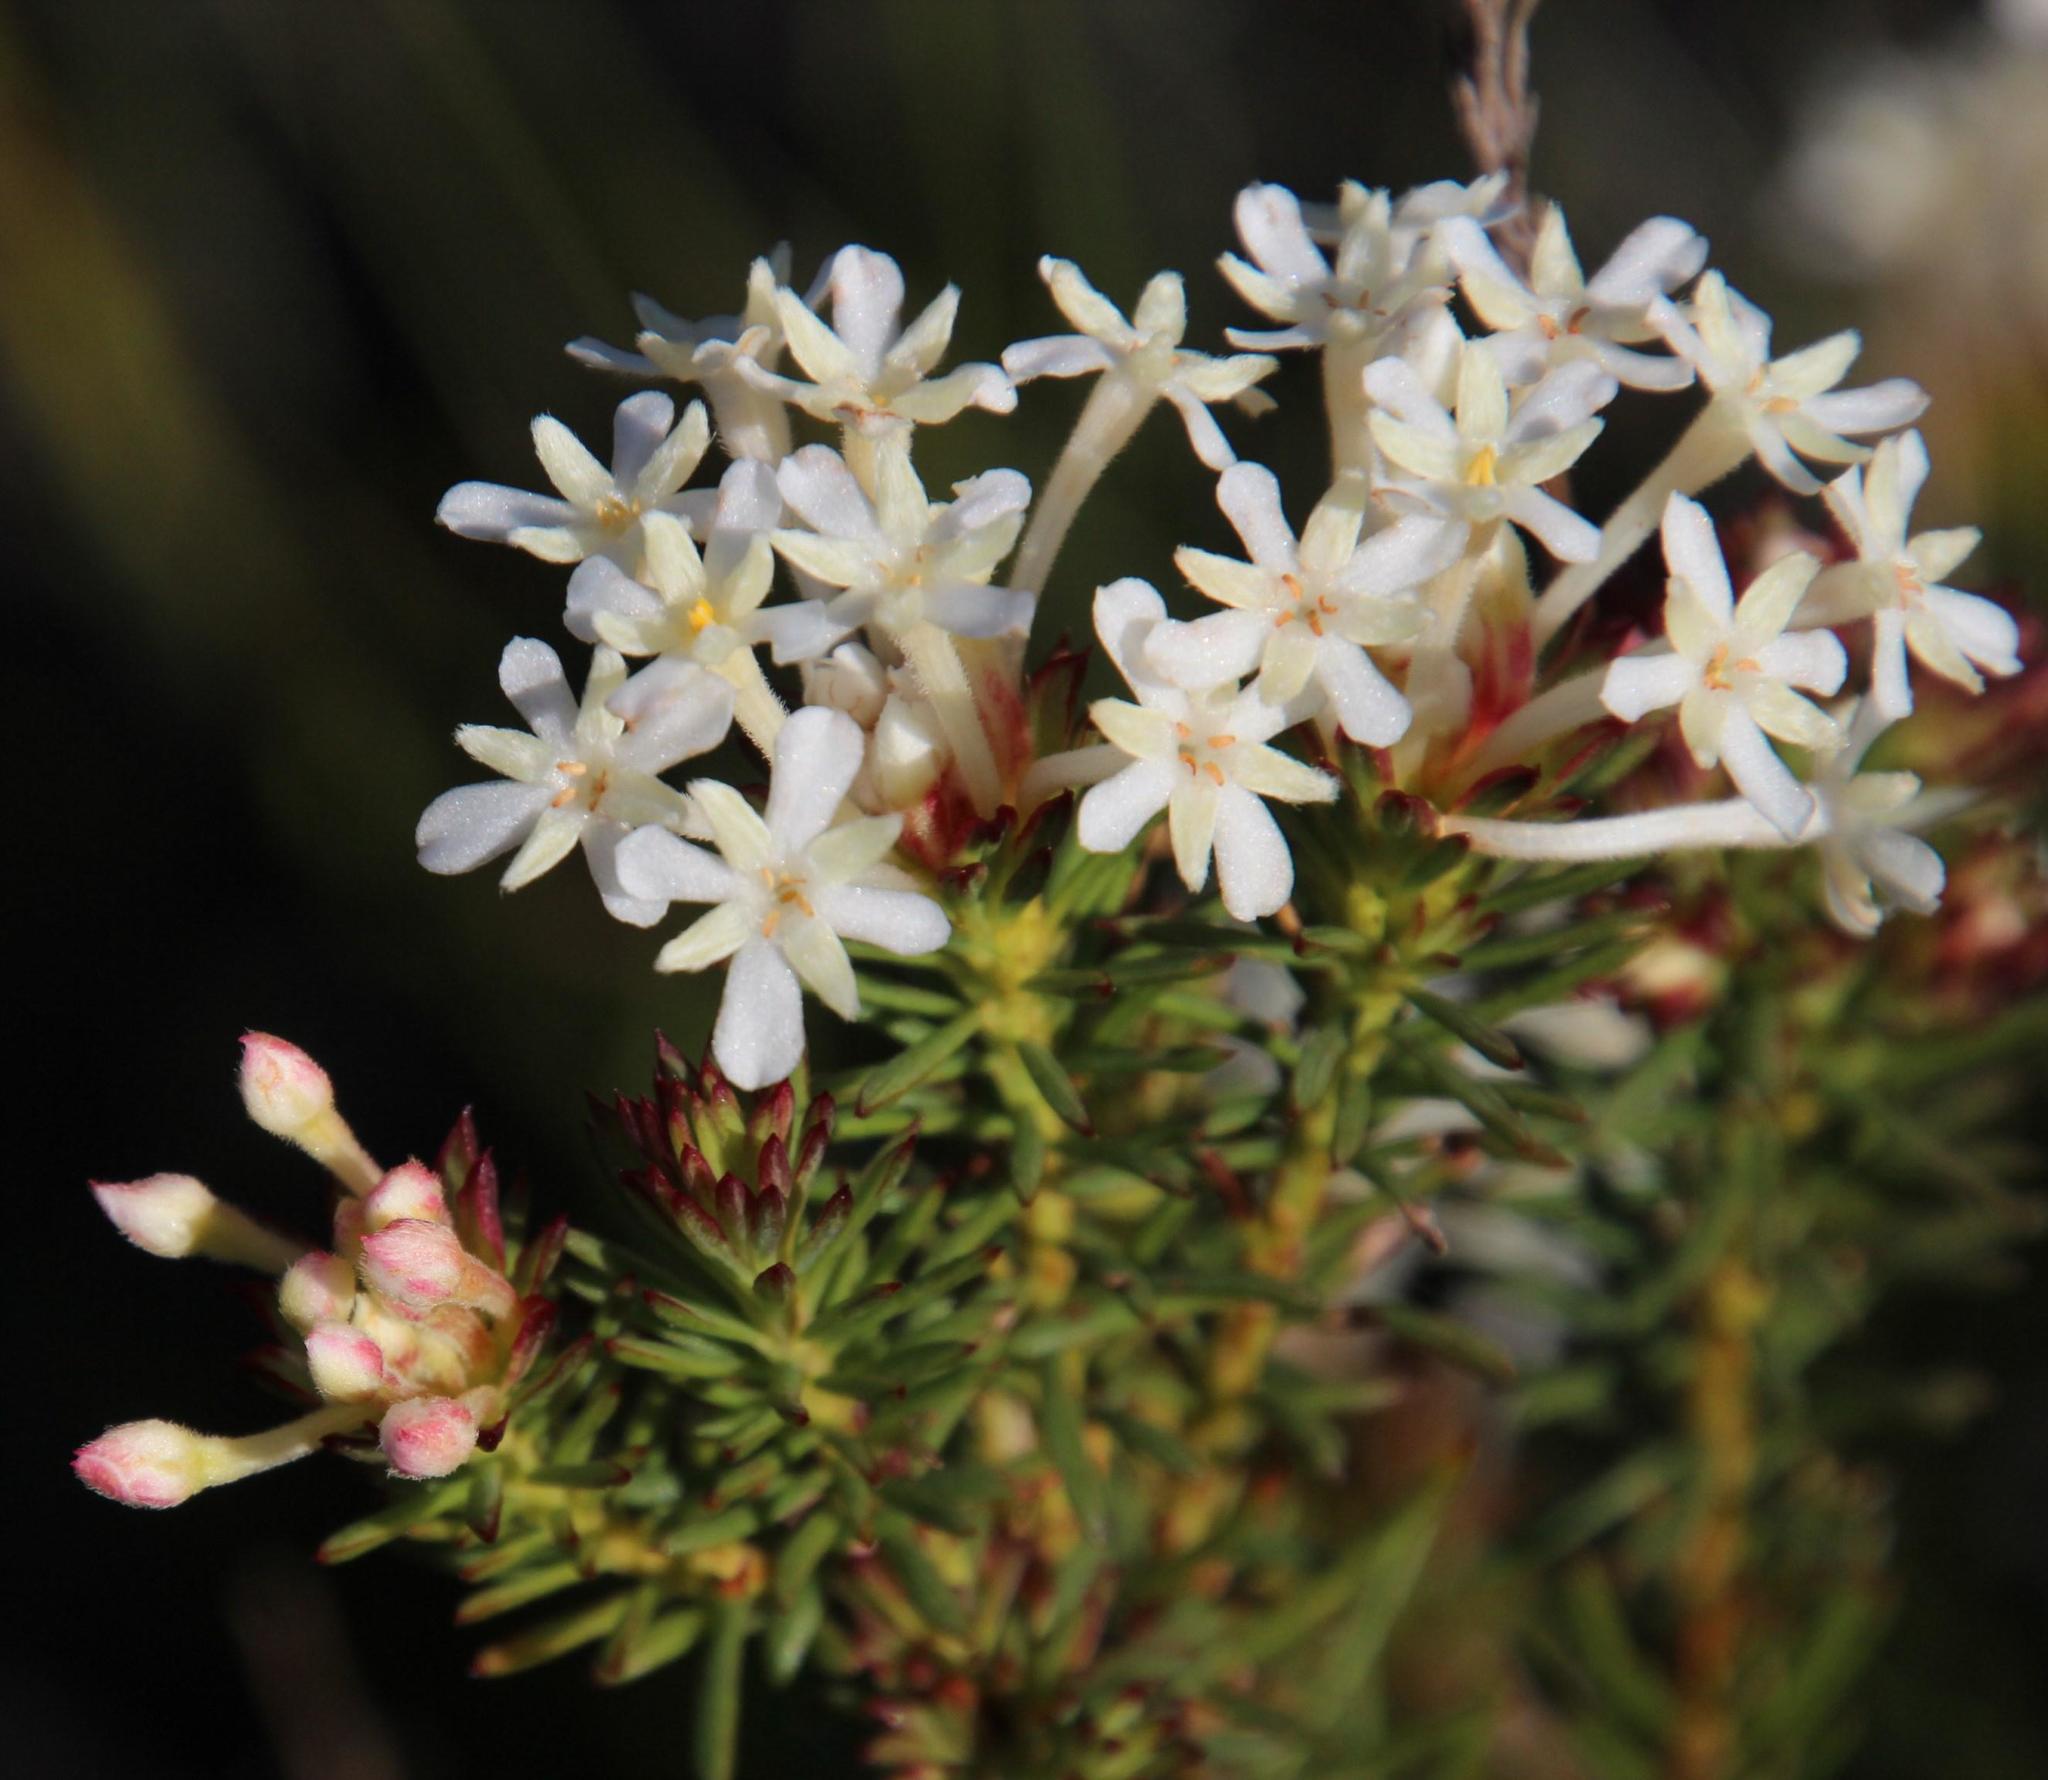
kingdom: Plantae
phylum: Tracheophyta
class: Magnoliopsida
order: Malvales
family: Thymelaeaceae
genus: Gnidia
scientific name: Gnidia pinifolia
